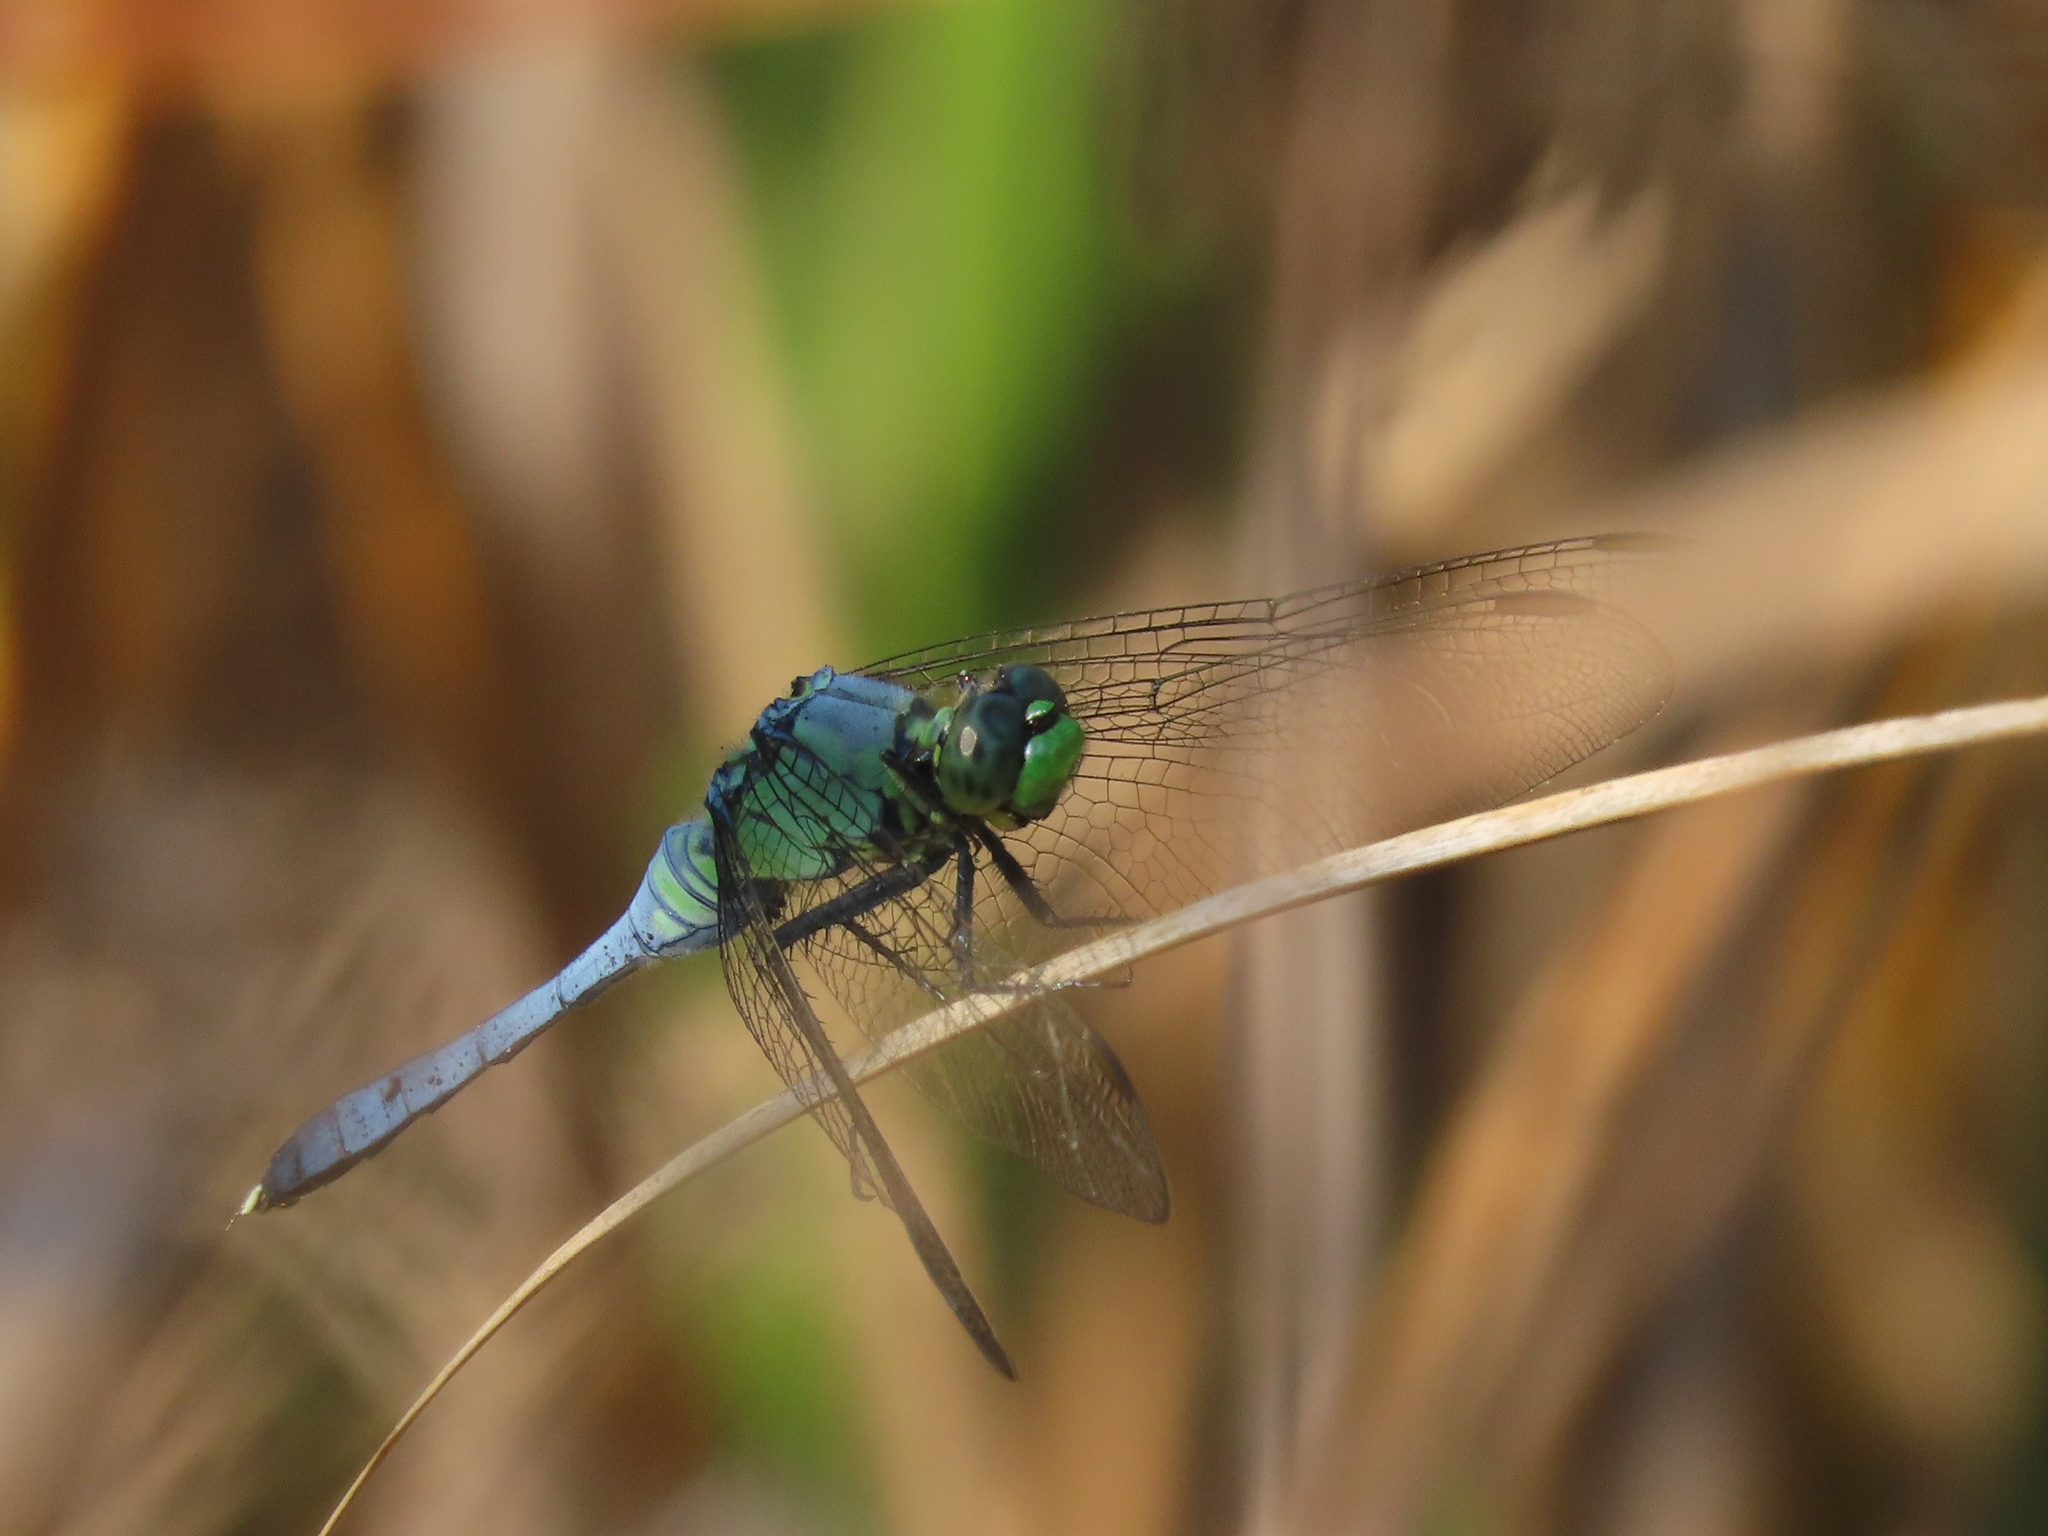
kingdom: Animalia
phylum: Arthropoda
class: Insecta
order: Odonata
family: Libellulidae
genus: Erythemis
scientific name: Erythemis simplicicollis
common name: Eastern pondhawk
